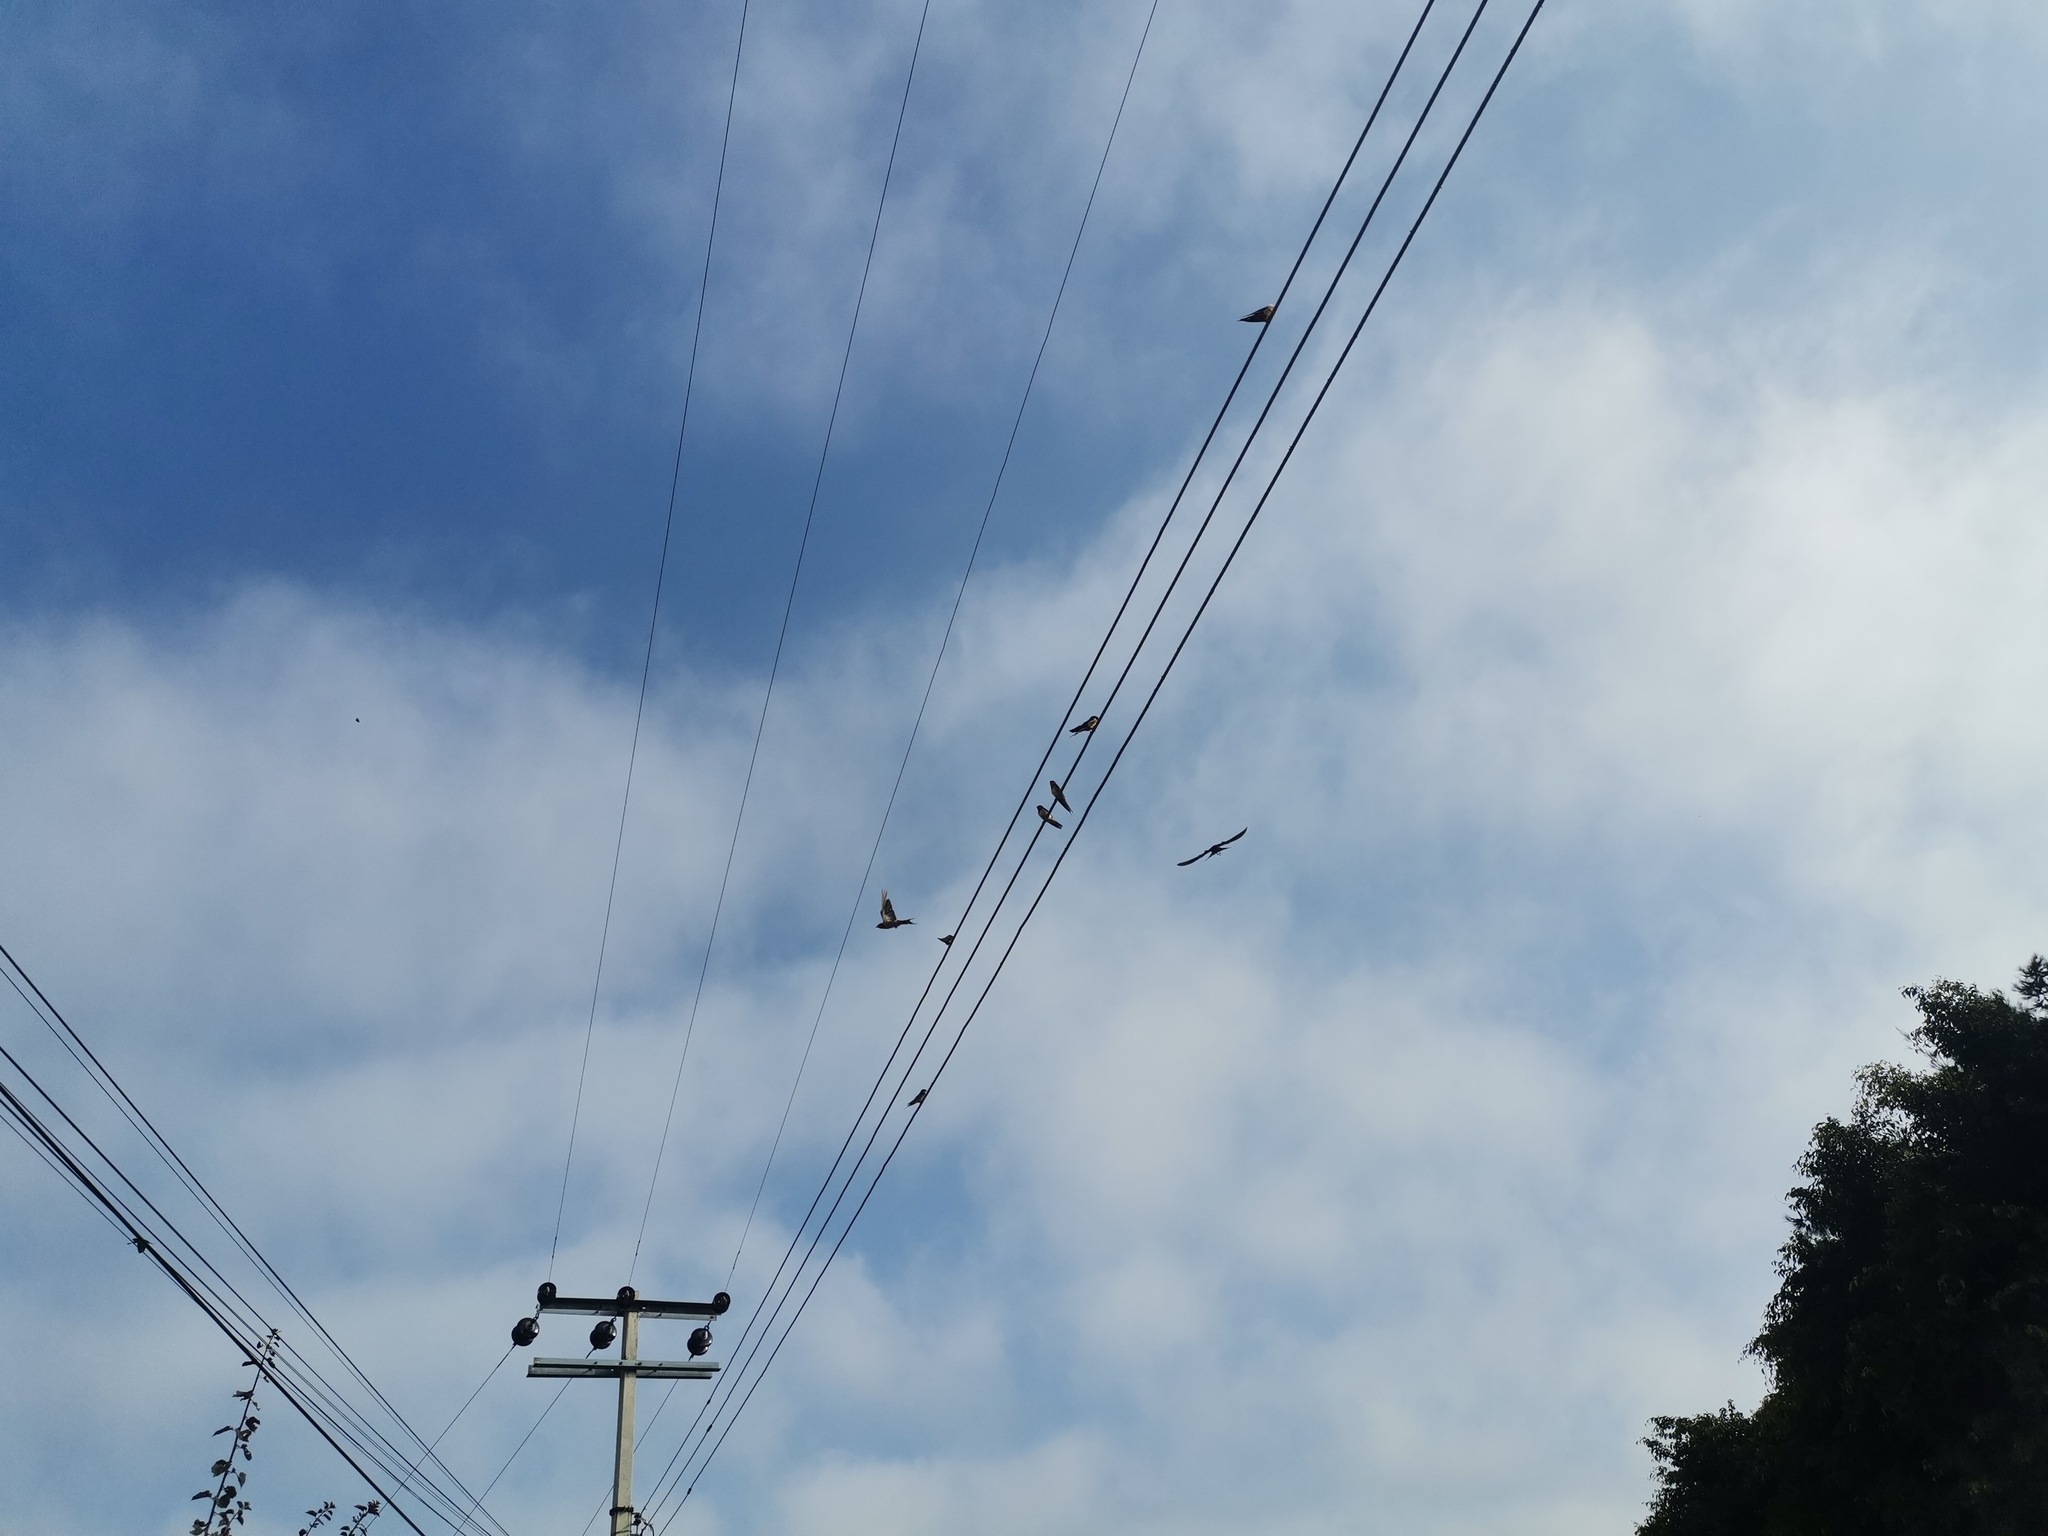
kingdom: Animalia
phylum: Chordata
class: Aves
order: Passeriformes
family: Hirundinidae
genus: Hirundo
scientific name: Hirundo rustica
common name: Barn swallow
